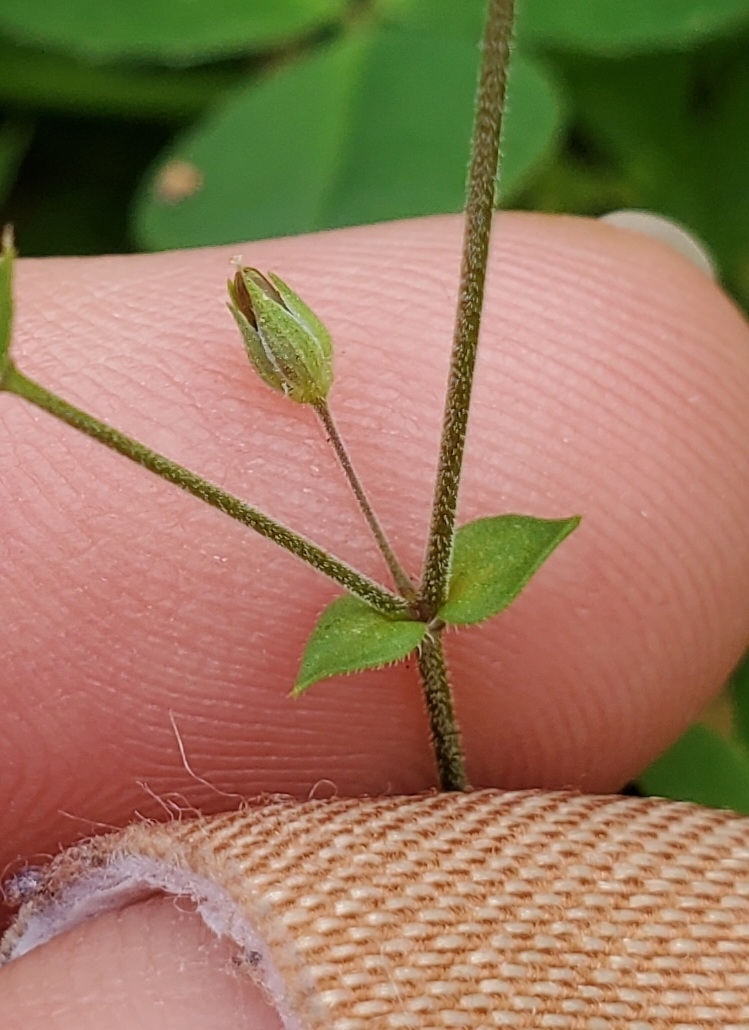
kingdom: Plantae
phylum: Tracheophyta
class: Magnoliopsida
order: Caryophyllales
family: Caryophyllaceae
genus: Arenaria
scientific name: Arenaria serpyllifolia
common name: Thyme-leaved sandwort
